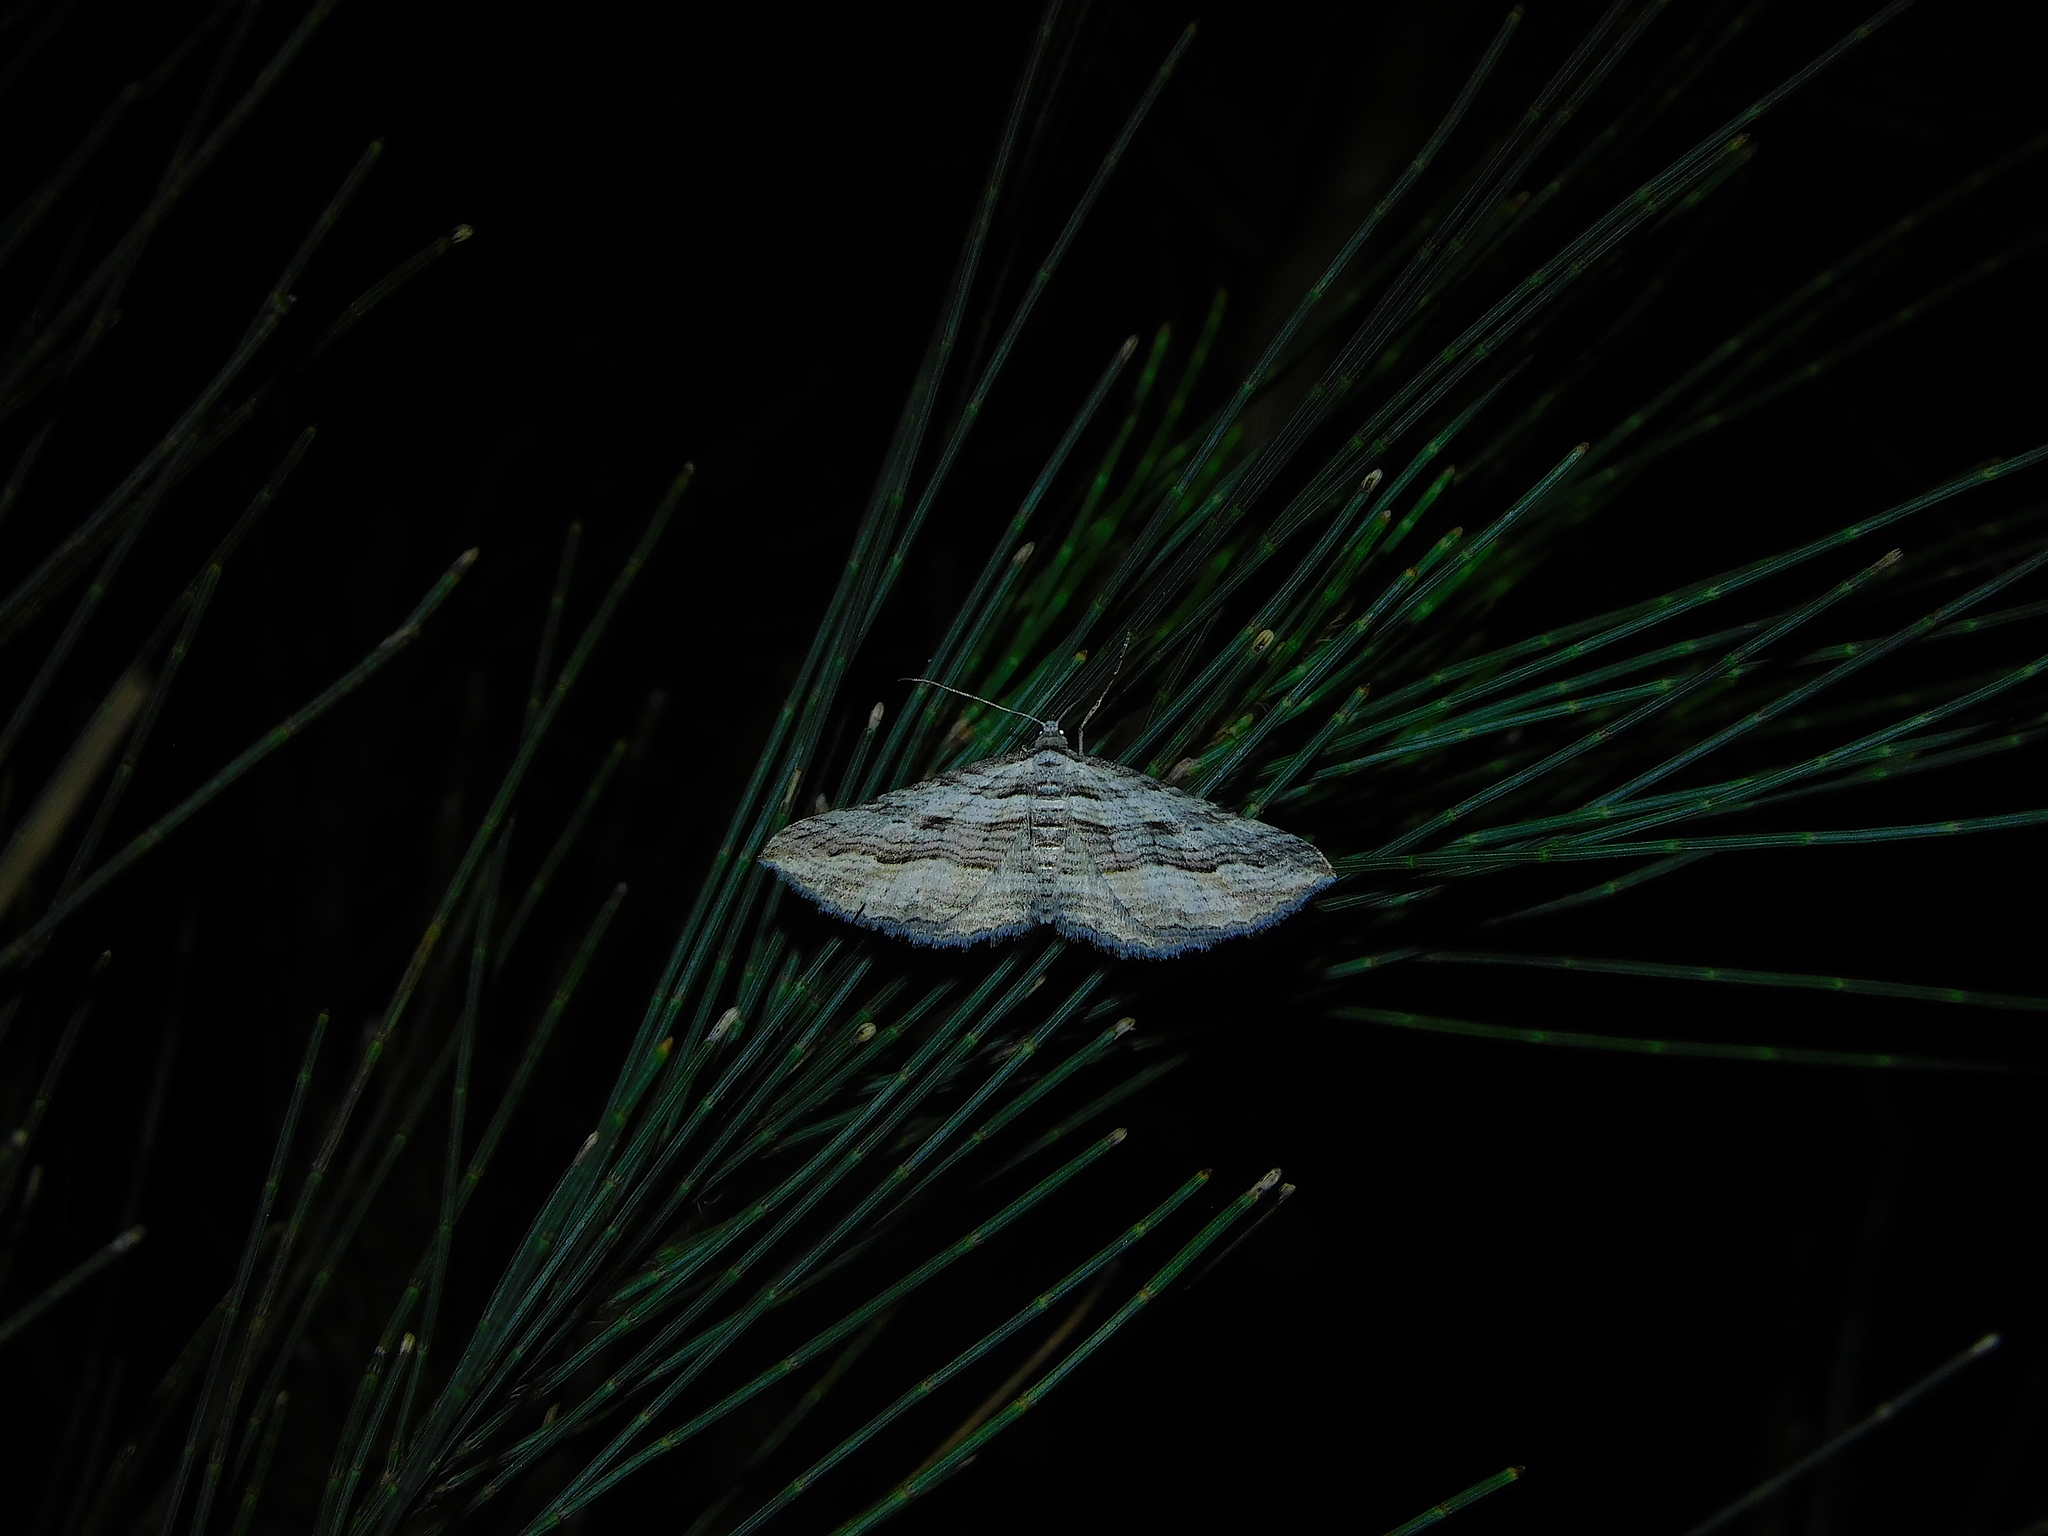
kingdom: Animalia
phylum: Arthropoda
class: Insecta
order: Lepidoptera
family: Geometridae
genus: Chrysolarentia
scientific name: Chrysolarentia severata
